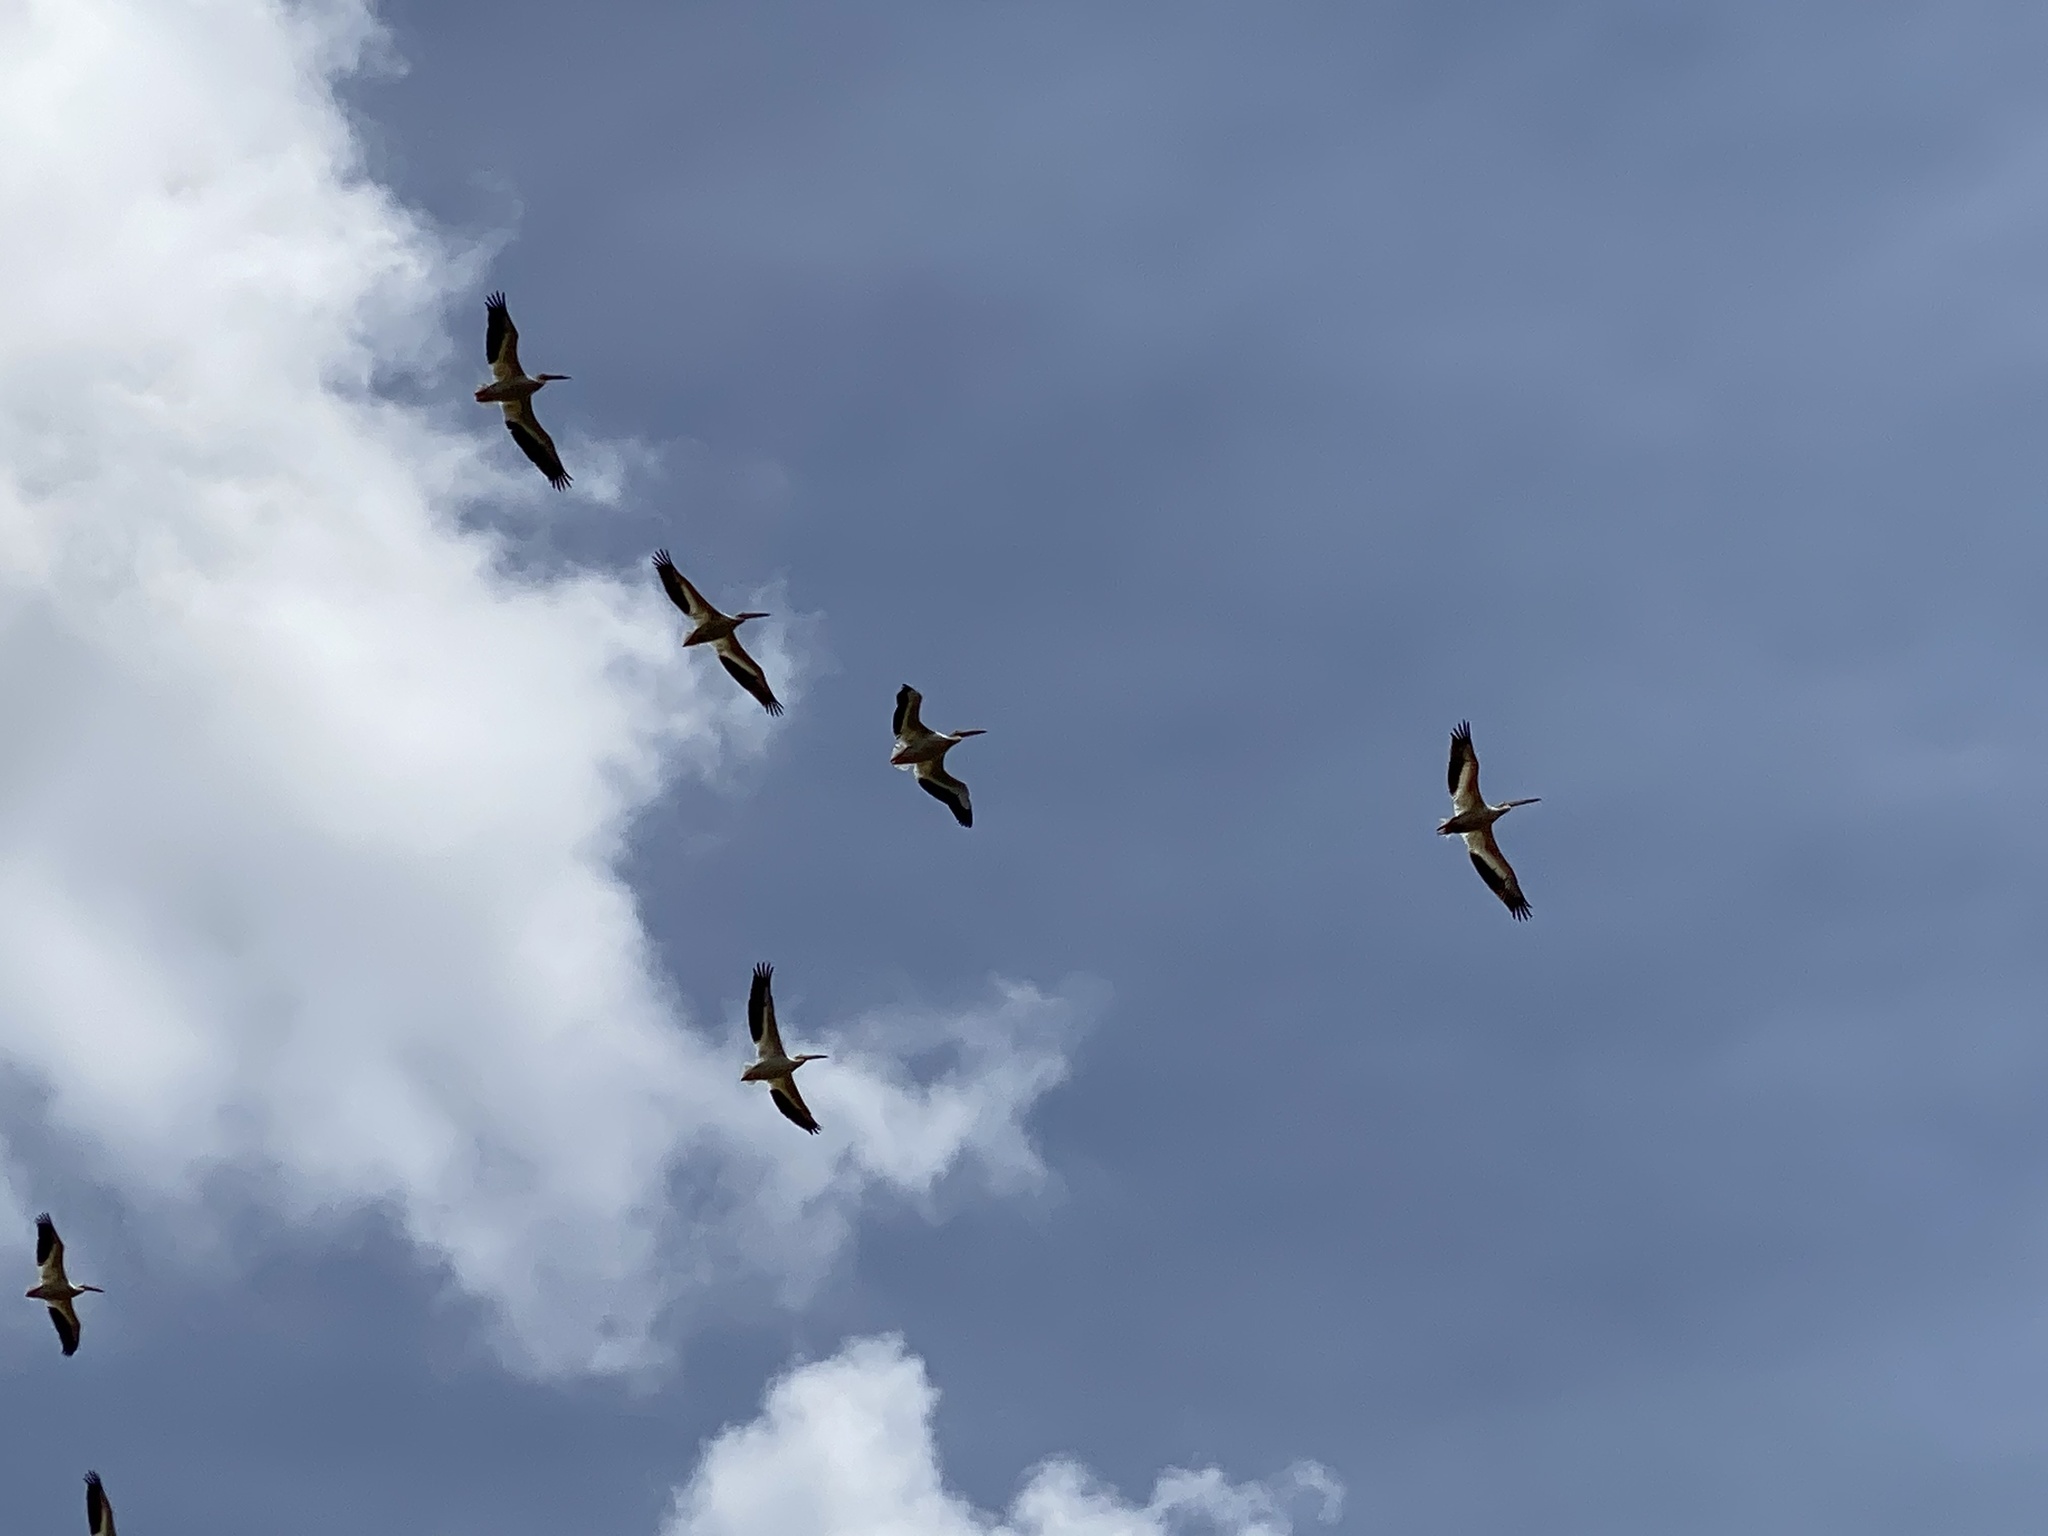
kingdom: Animalia
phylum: Chordata
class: Aves
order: Pelecaniformes
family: Pelecanidae
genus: Pelecanus
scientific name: Pelecanus erythrorhynchos
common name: American white pelican
